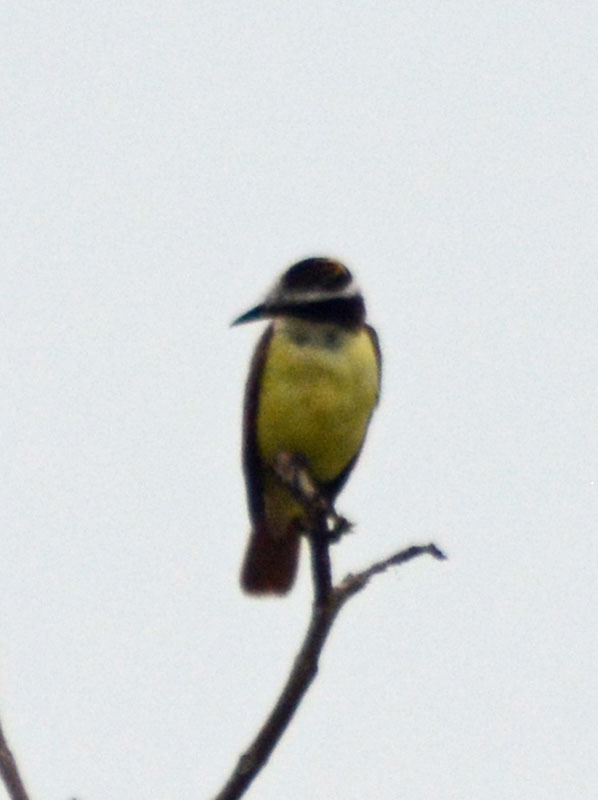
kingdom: Animalia
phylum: Chordata
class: Aves
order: Passeriformes
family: Tyrannidae
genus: Pitangus
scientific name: Pitangus sulphuratus
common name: Great kiskadee
